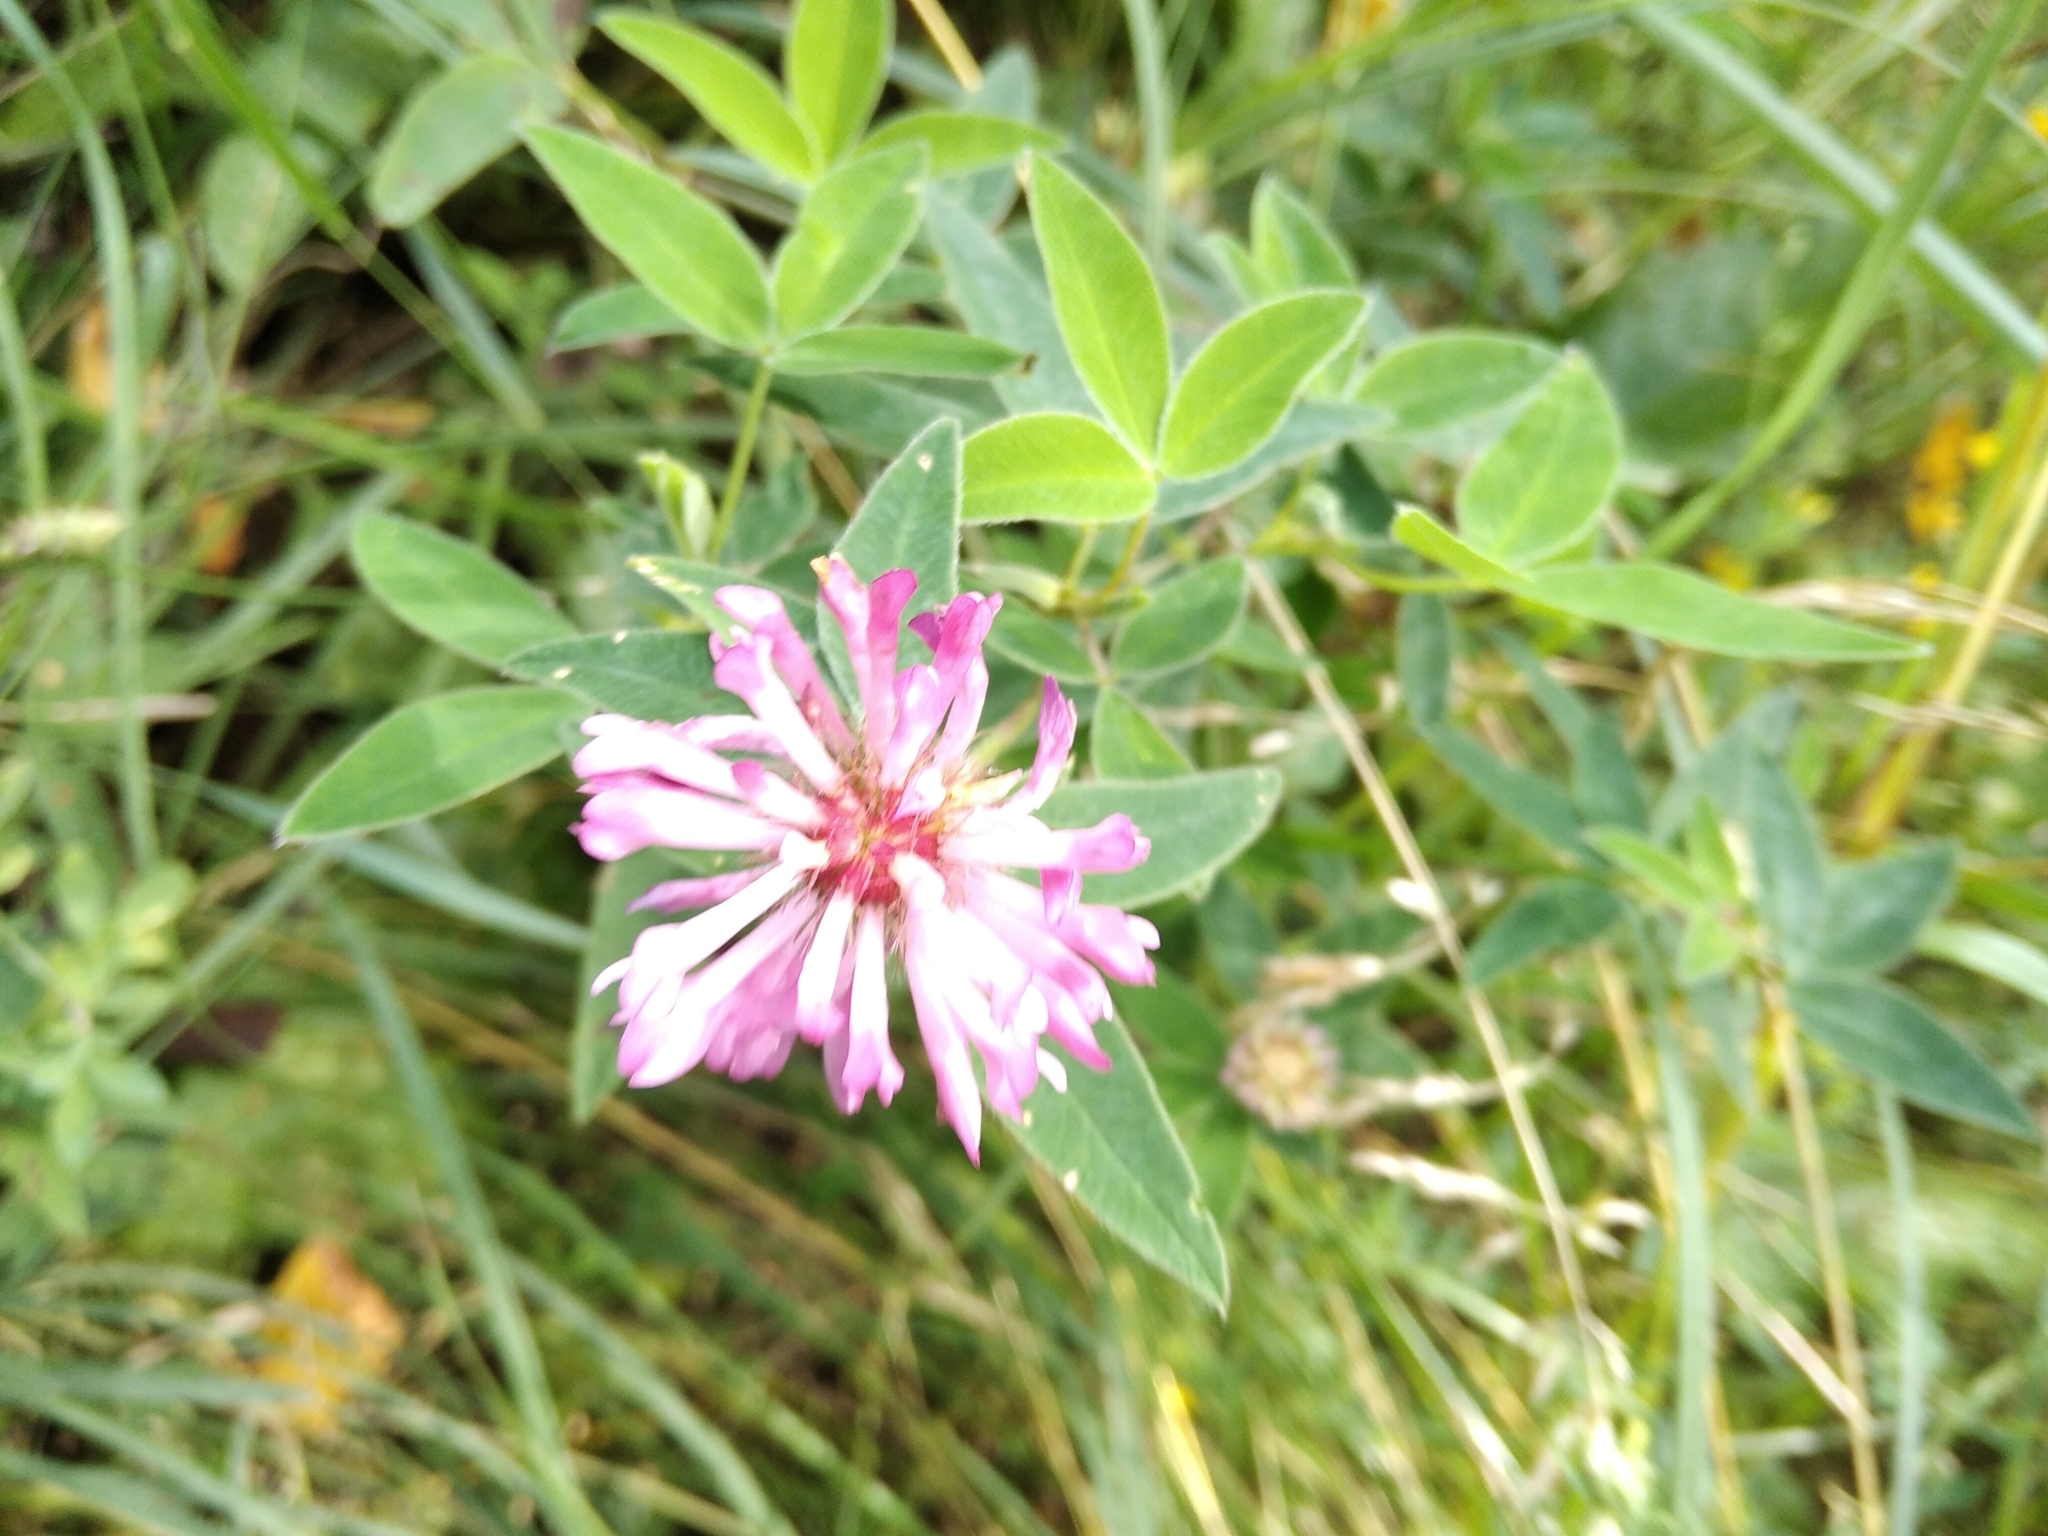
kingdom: Plantae
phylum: Tracheophyta
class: Magnoliopsida
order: Fabales
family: Fabaceae
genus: Trifolium
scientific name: Trifolium medium
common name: Zigzag clover
